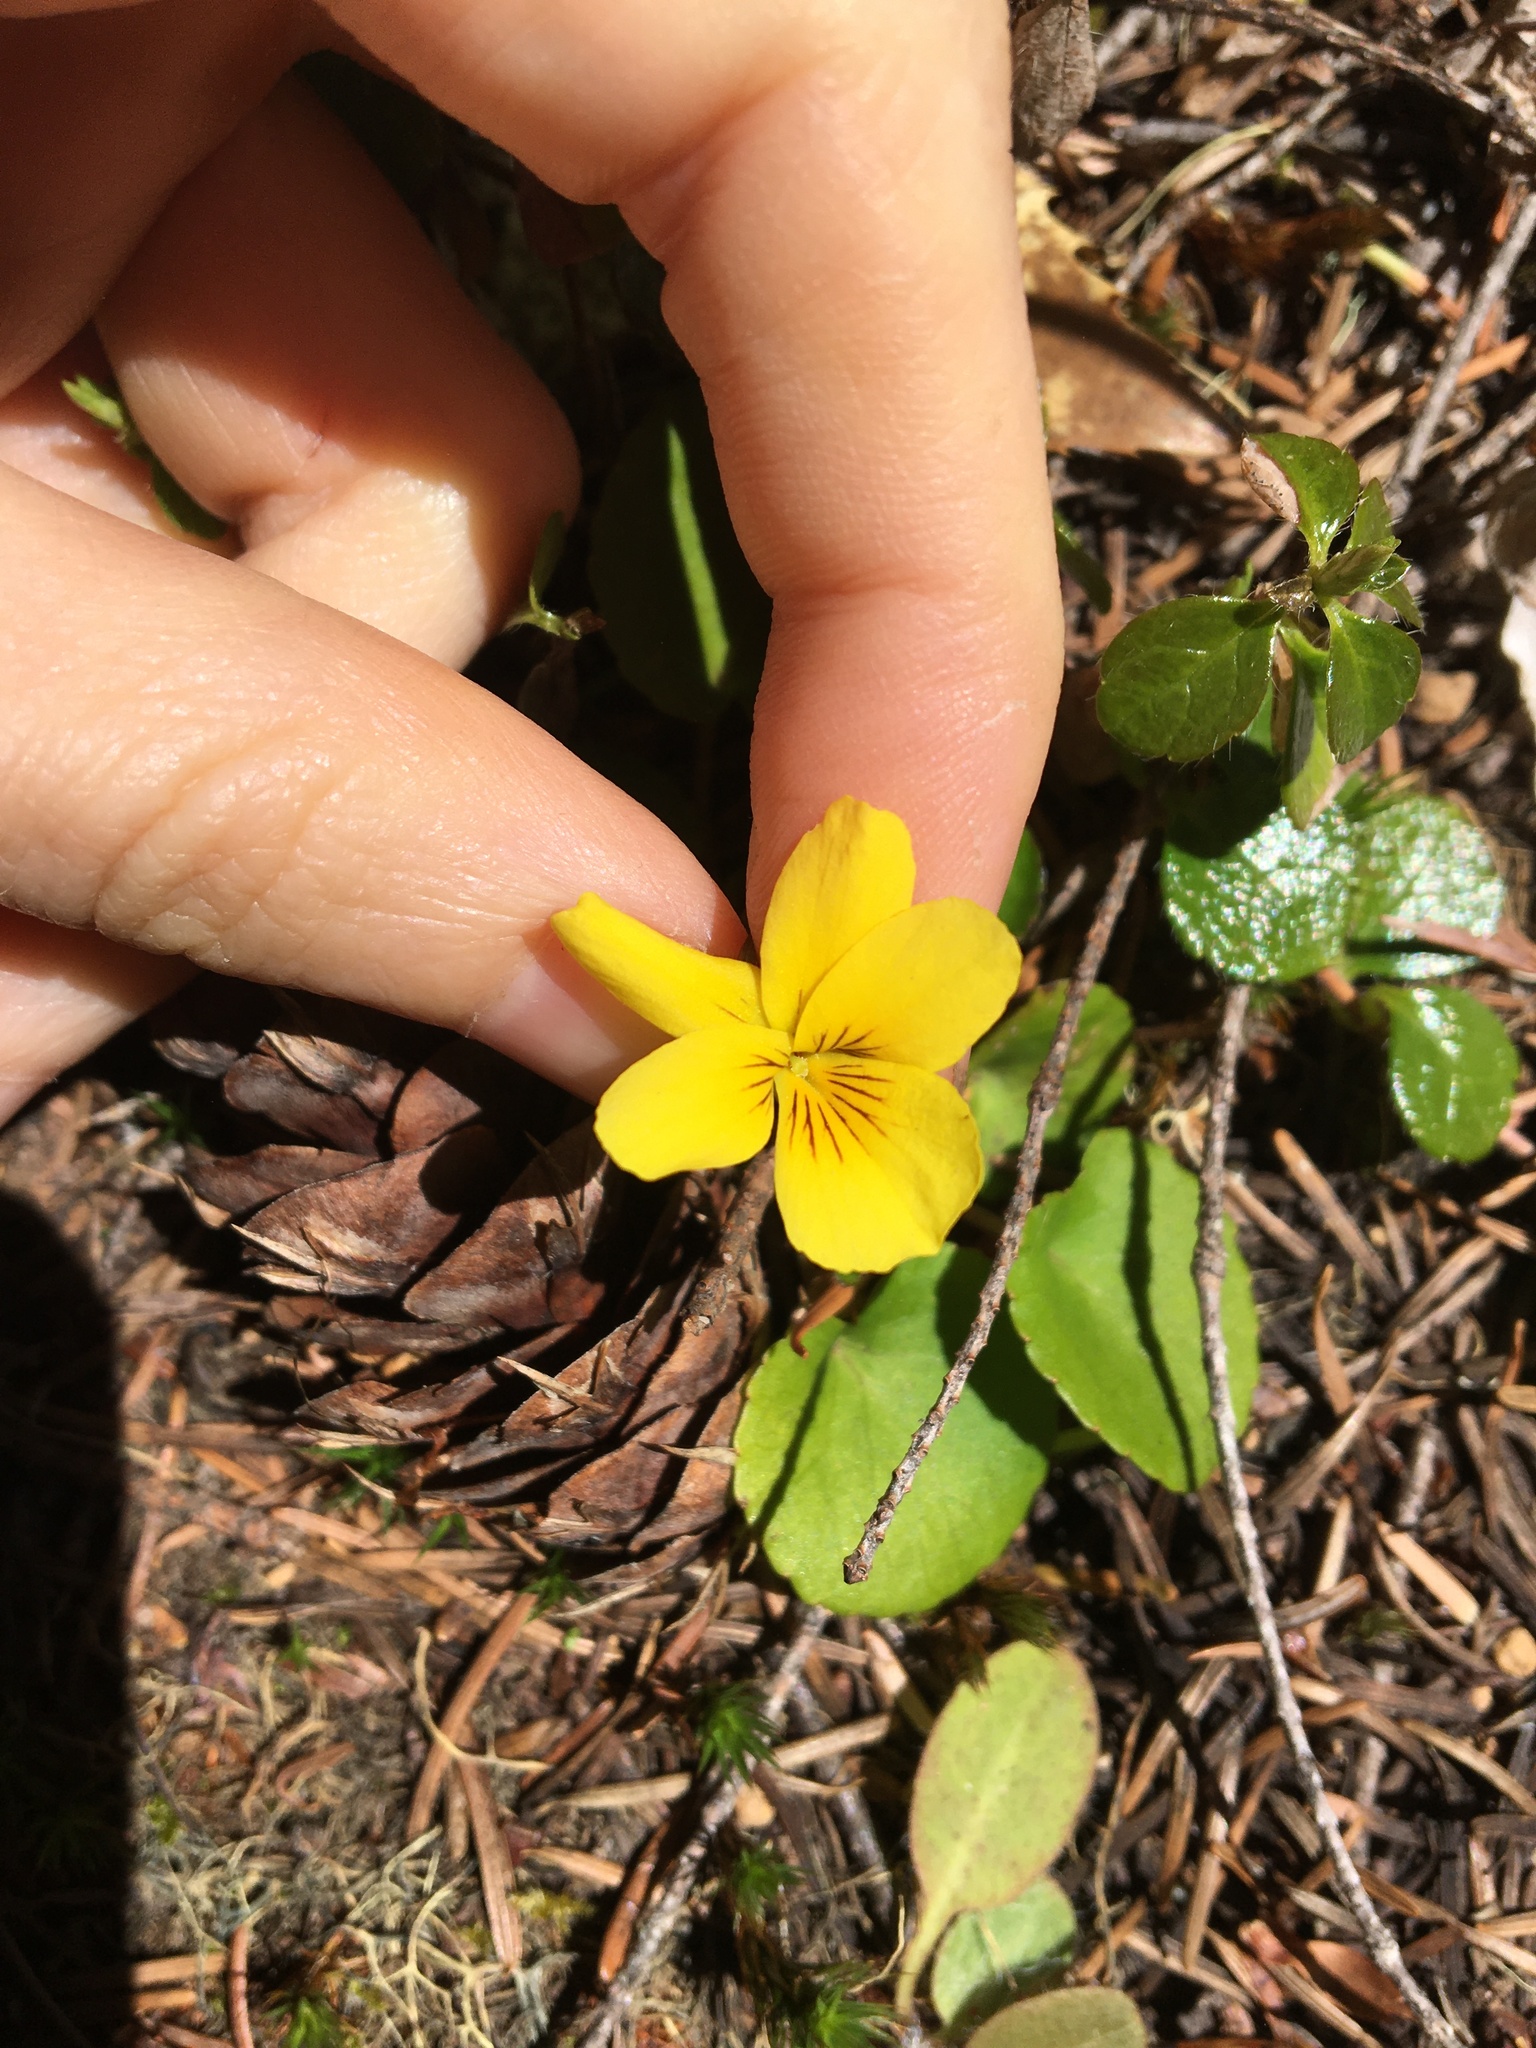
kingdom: Plantae
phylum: Tracheophyta
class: Magnoliopsida
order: Malpighiales
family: Violaceae
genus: Viola
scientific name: Viola sempervirens
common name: Evergreen violet
